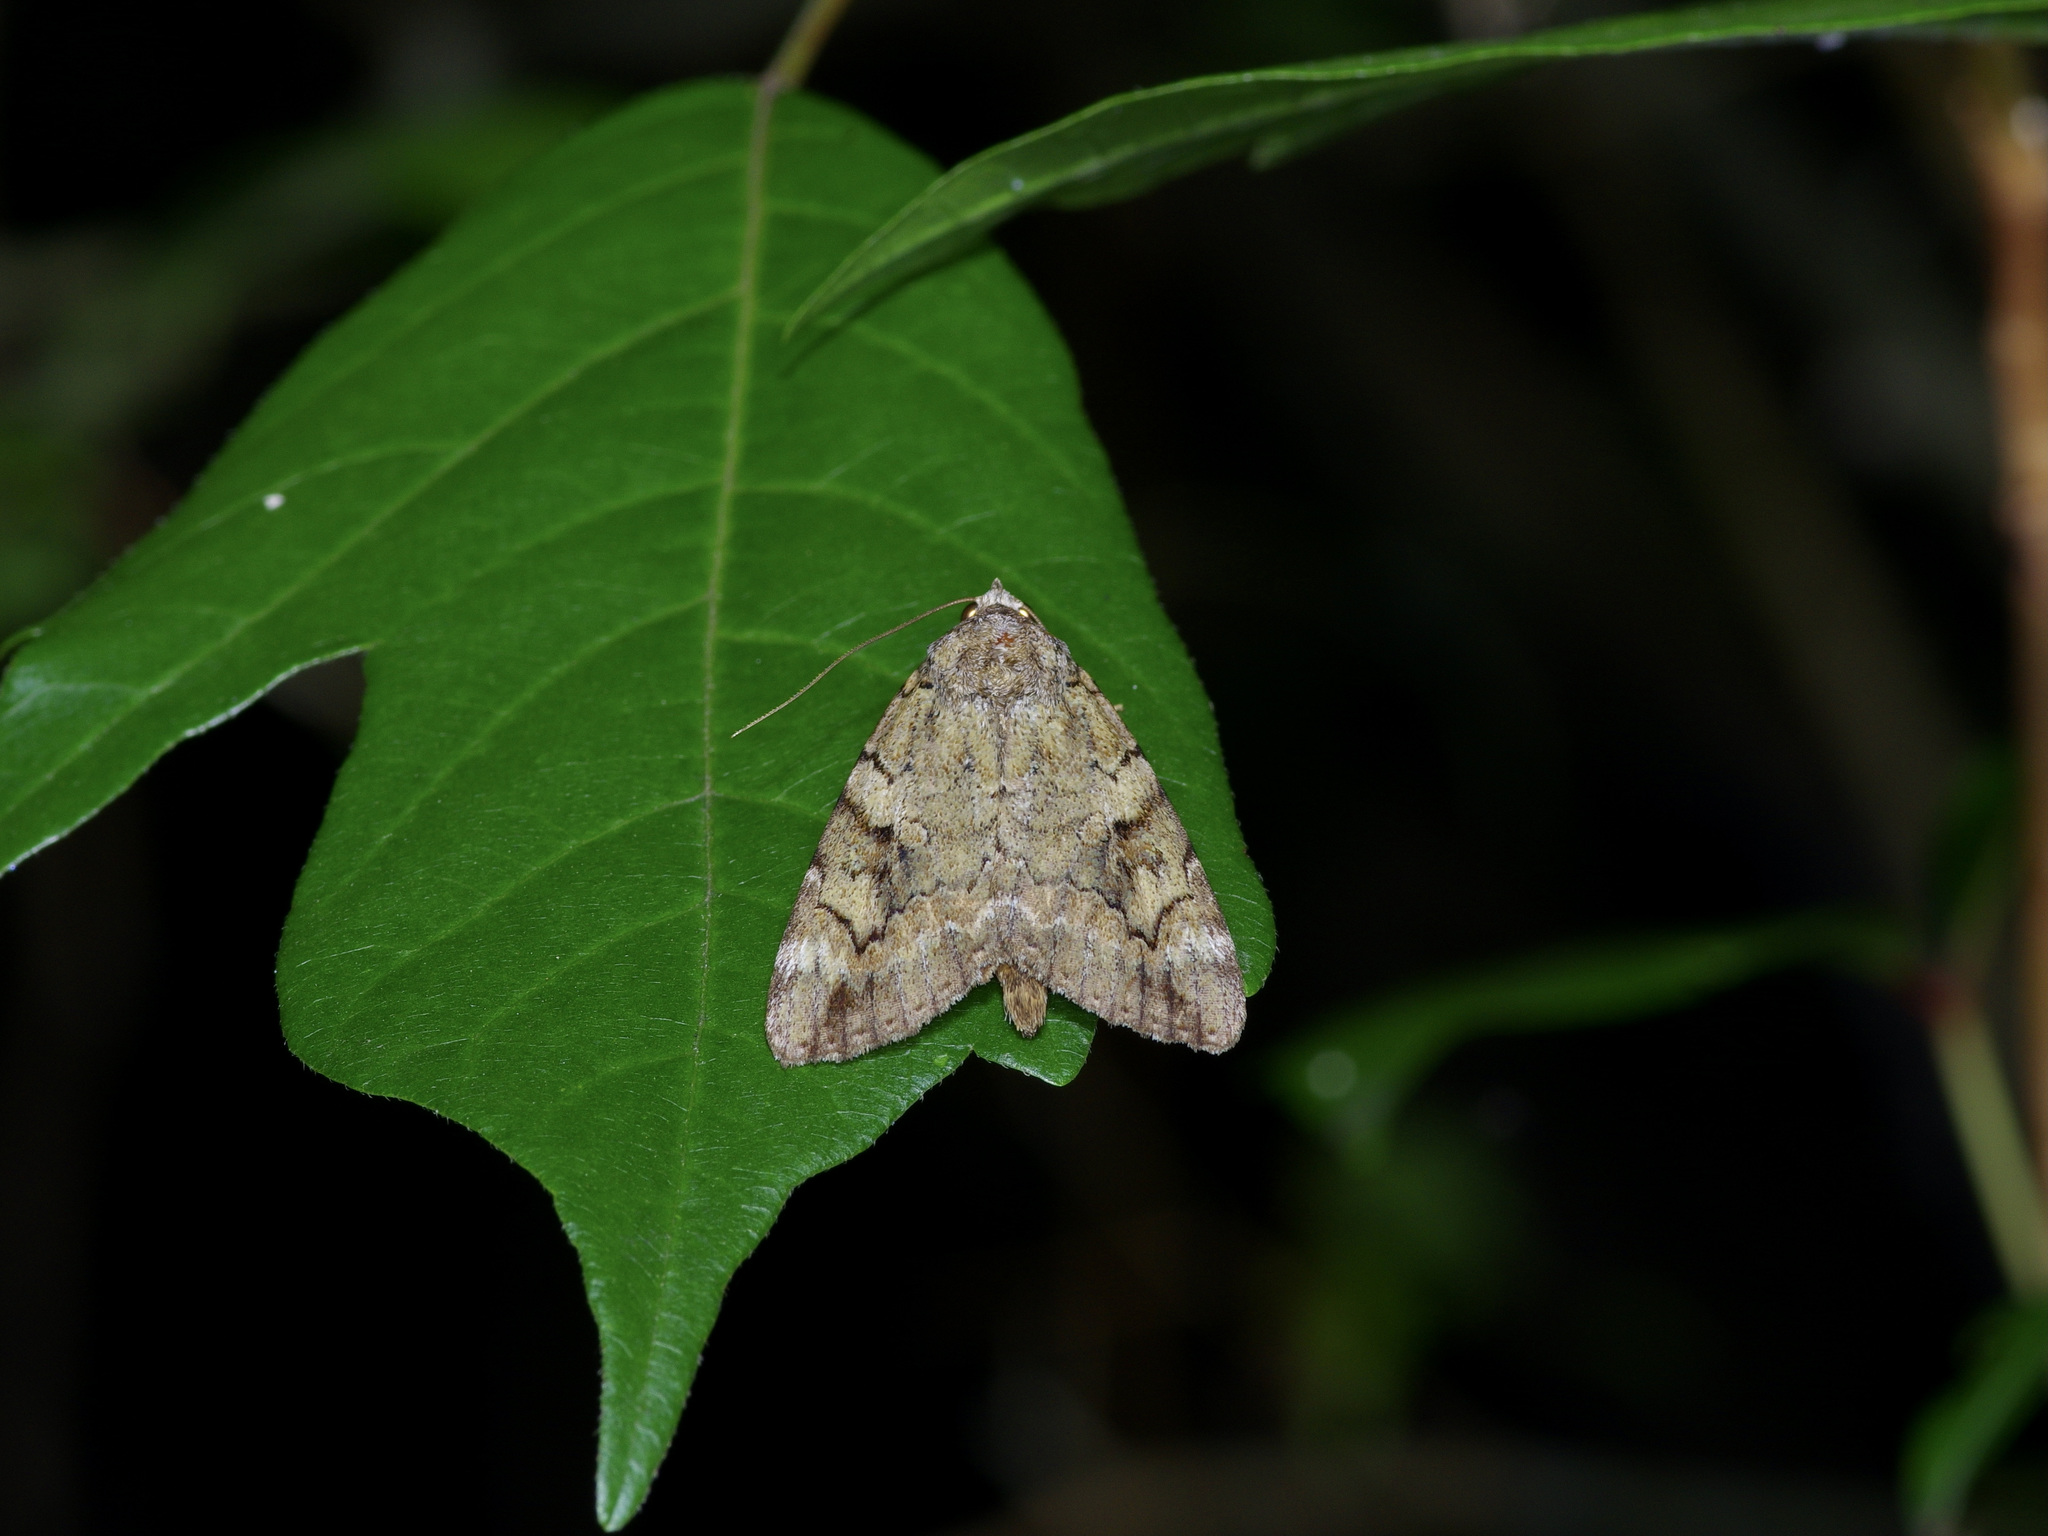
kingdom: Animalia
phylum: Arthropoda
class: Insecta
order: Lepidoptera
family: Erebidae
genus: Catocala
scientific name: Catocala micronympha
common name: Little nymph underwing
